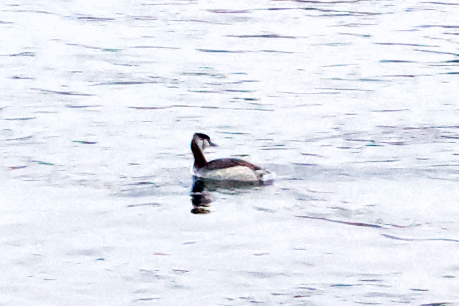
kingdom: Animalia
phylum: Chordata
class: Aves
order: Podicipediformes
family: Podicipedidae
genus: Podiceps
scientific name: Podiceps cristatus
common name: Great crested grebe
